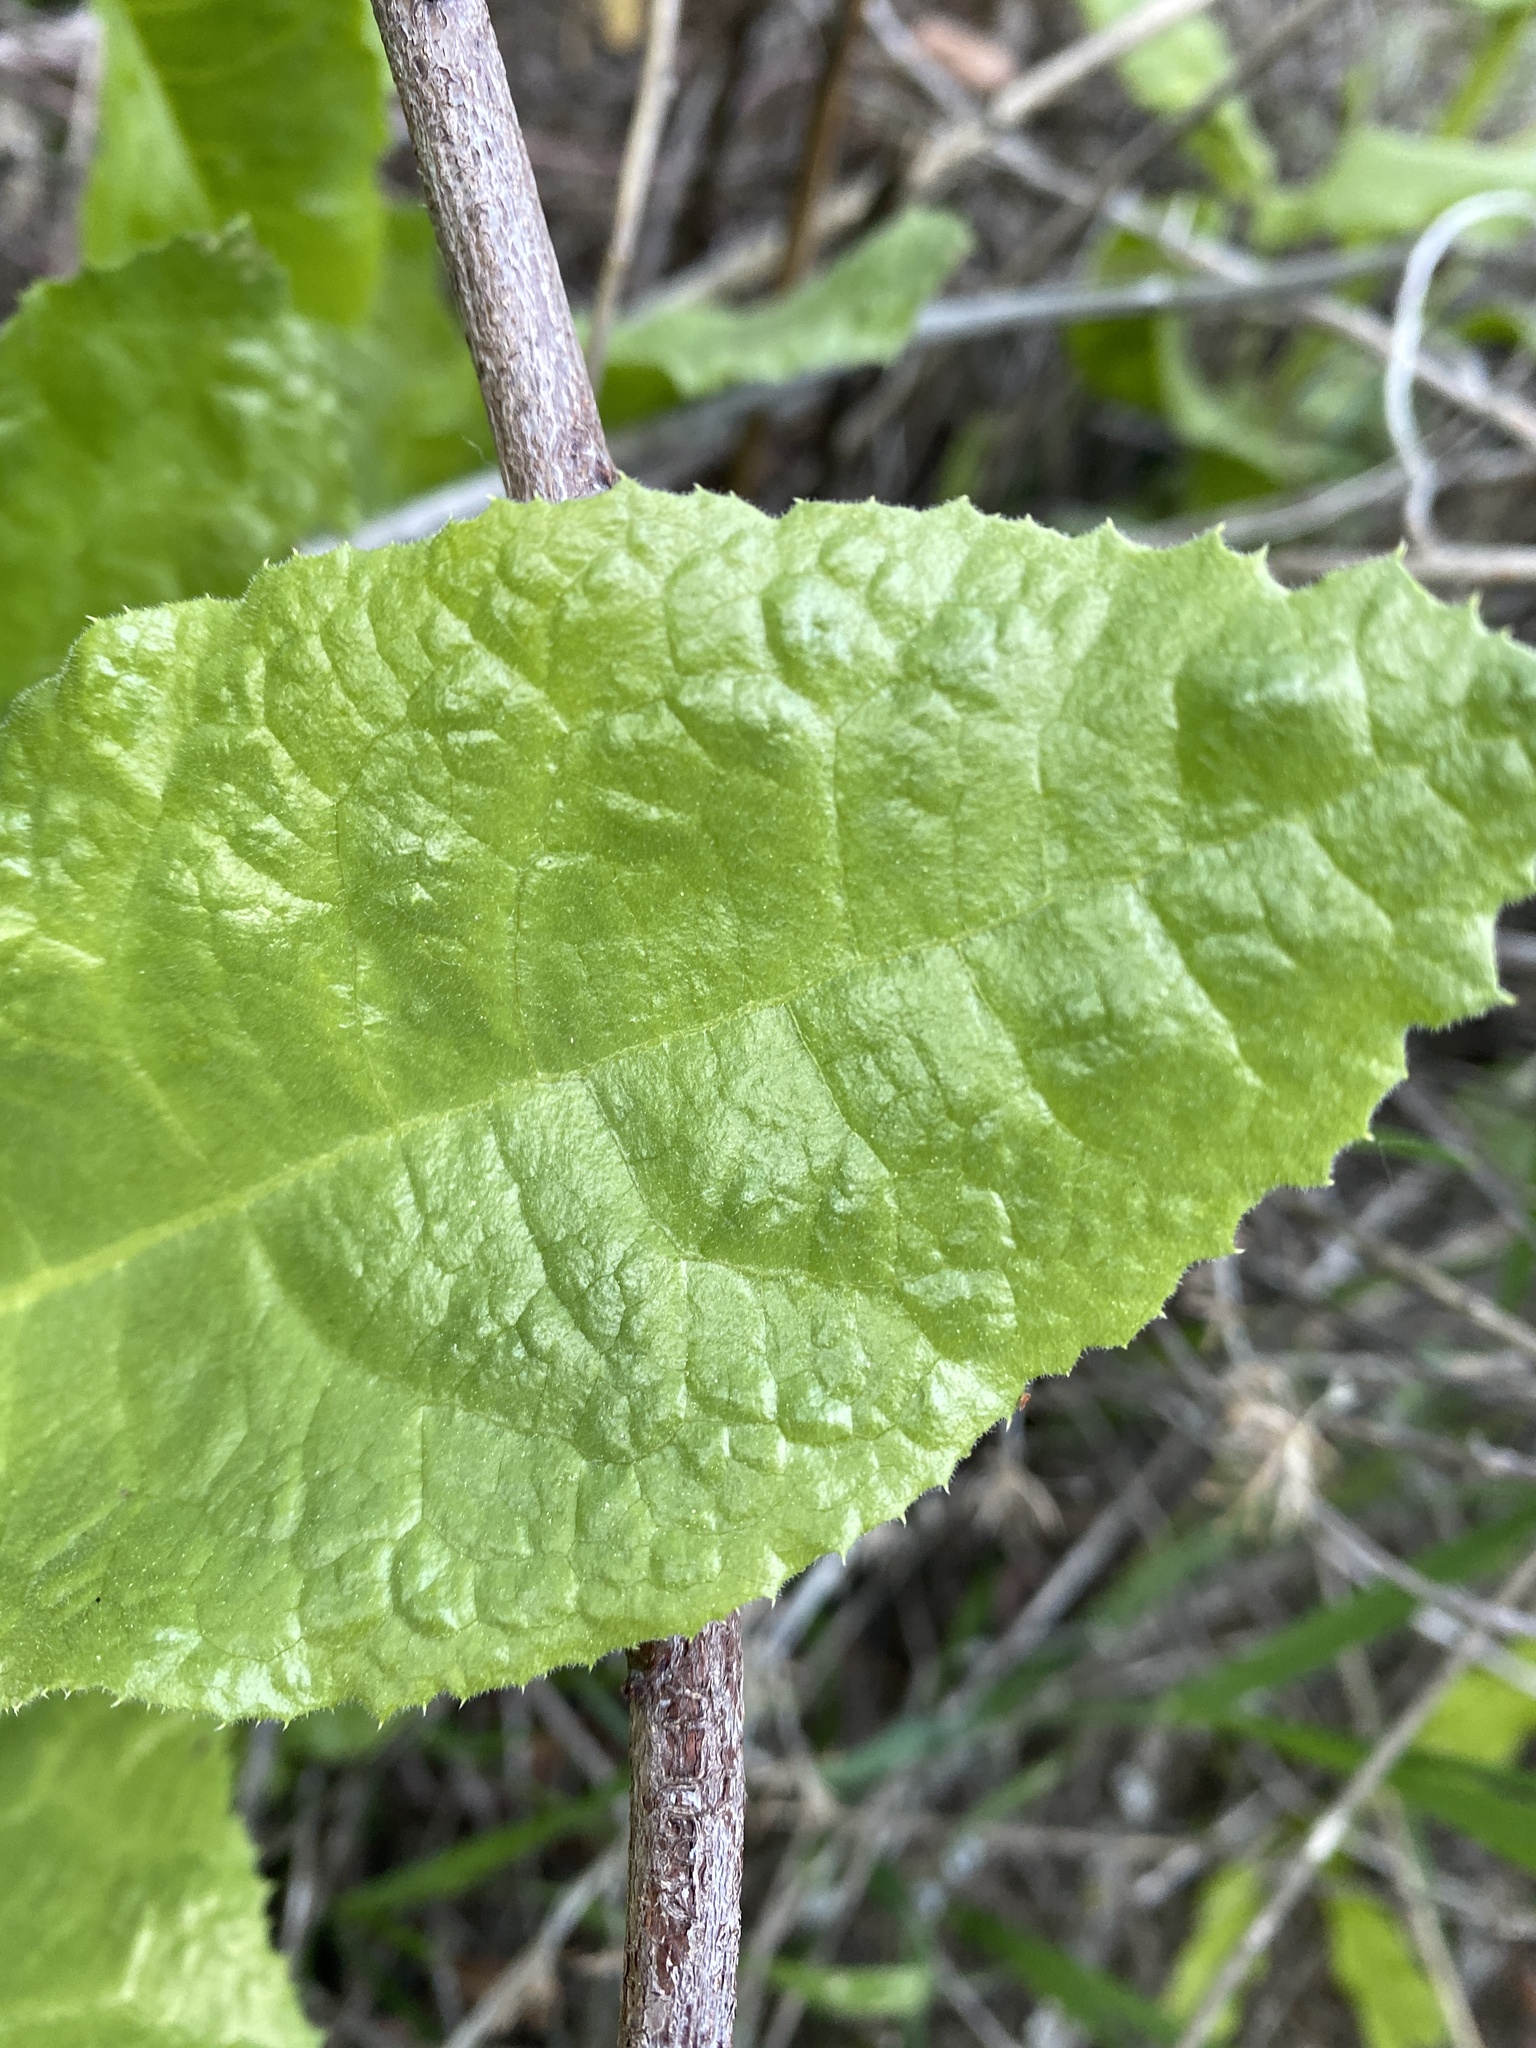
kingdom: Plantae
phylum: Tracheophyta
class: Magnoliopsida
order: Asterales
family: Asteraceae
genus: Acourtia
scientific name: Acourtia microcephala
